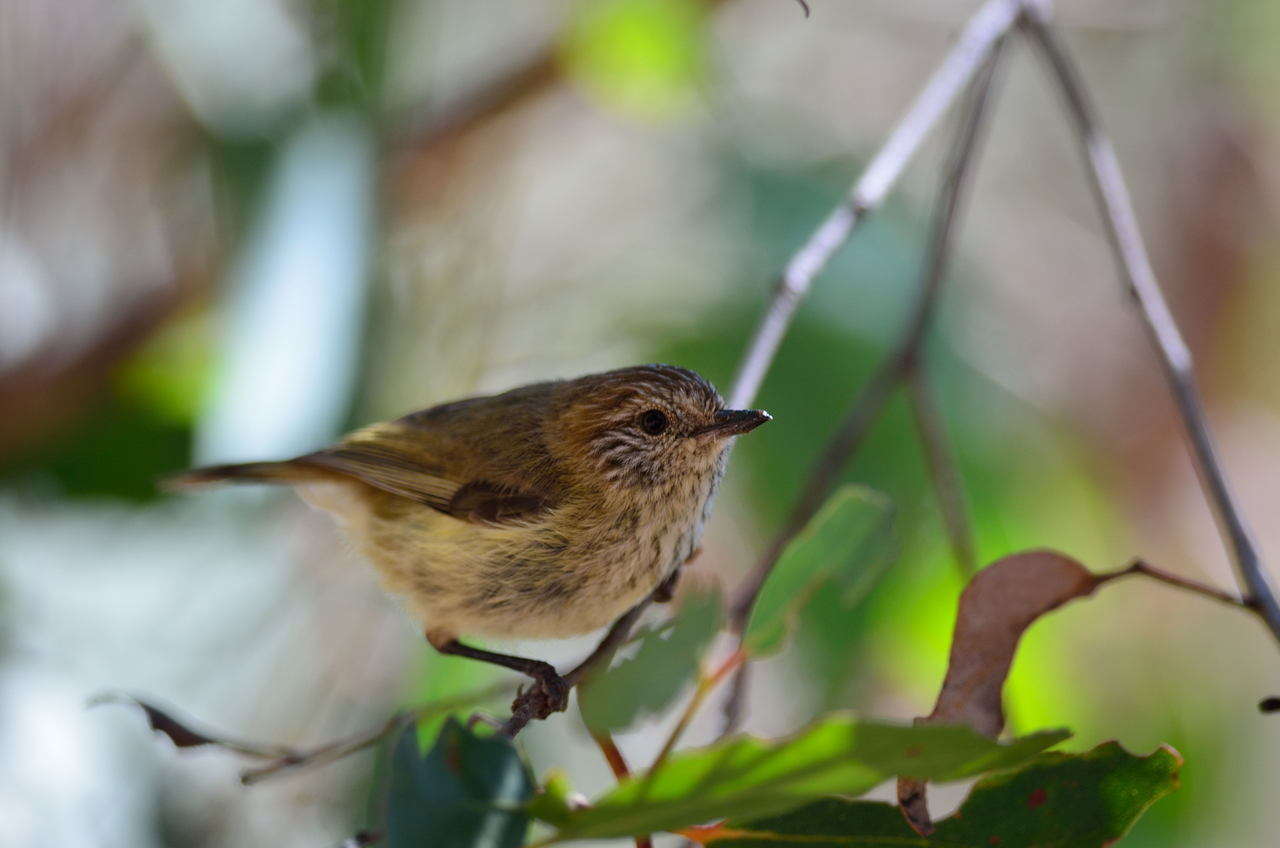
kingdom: Animalia
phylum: Chordata
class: Aves
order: Passeriformes
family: Acanthizidae
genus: Acanthiza
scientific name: Acanthiza lineata
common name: Striated thornbill
